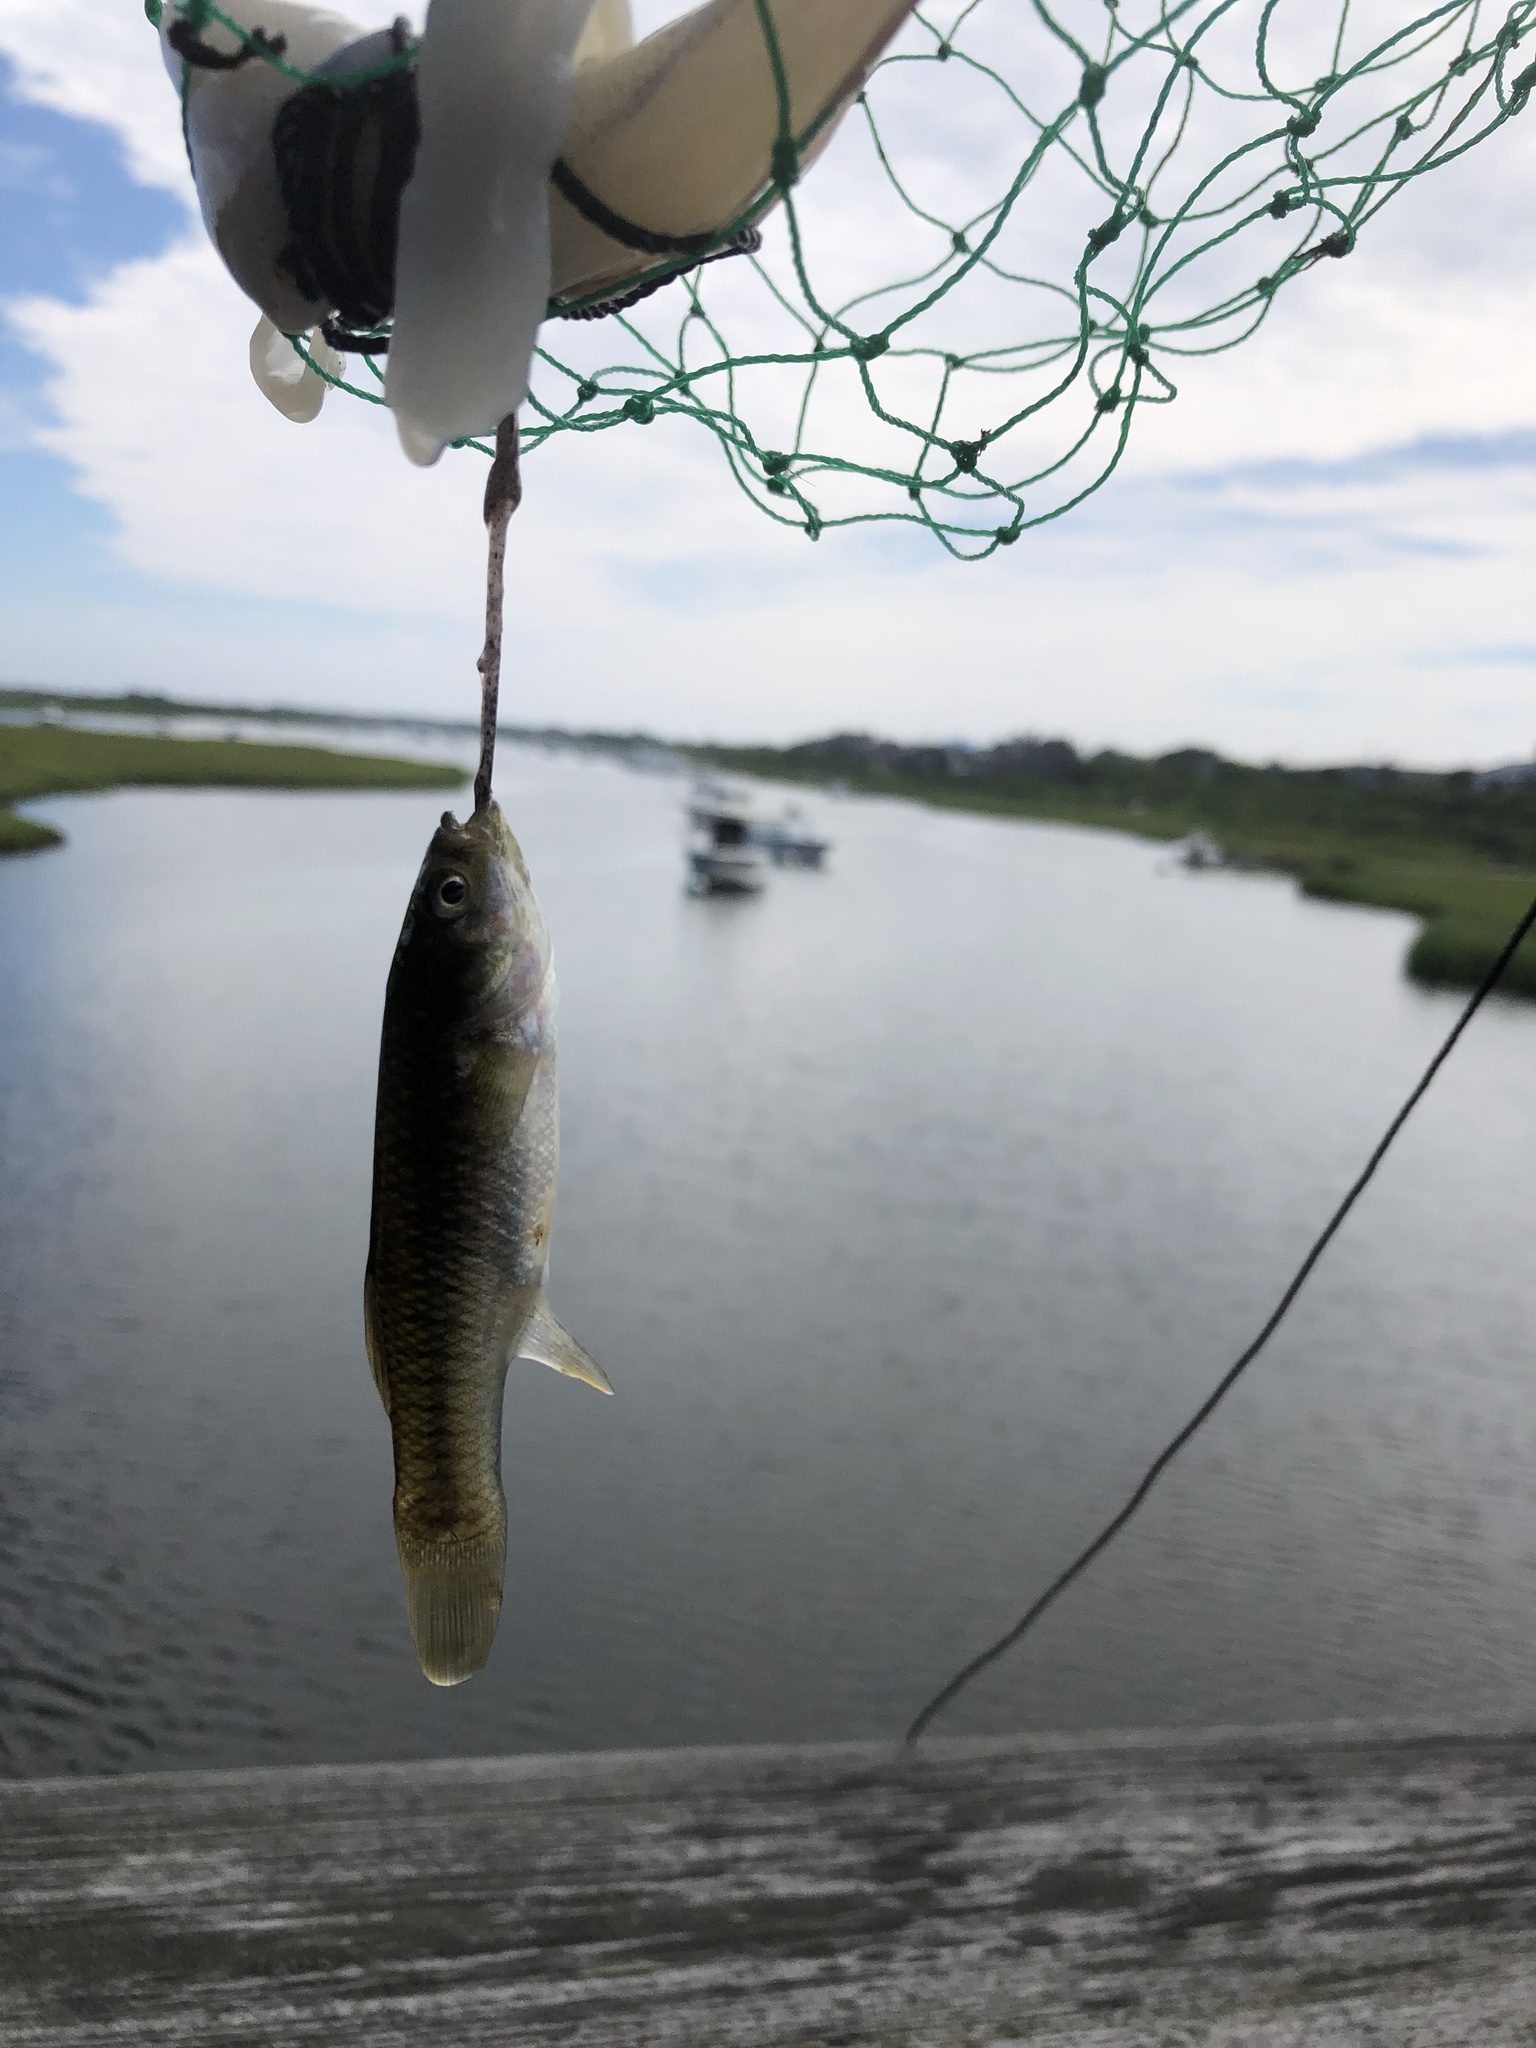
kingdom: Animalia
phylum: Chordata
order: Cyprinodontiformes
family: Fundulidae
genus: Fundulus
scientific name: Fundulus heteroclitus
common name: Mummichog
